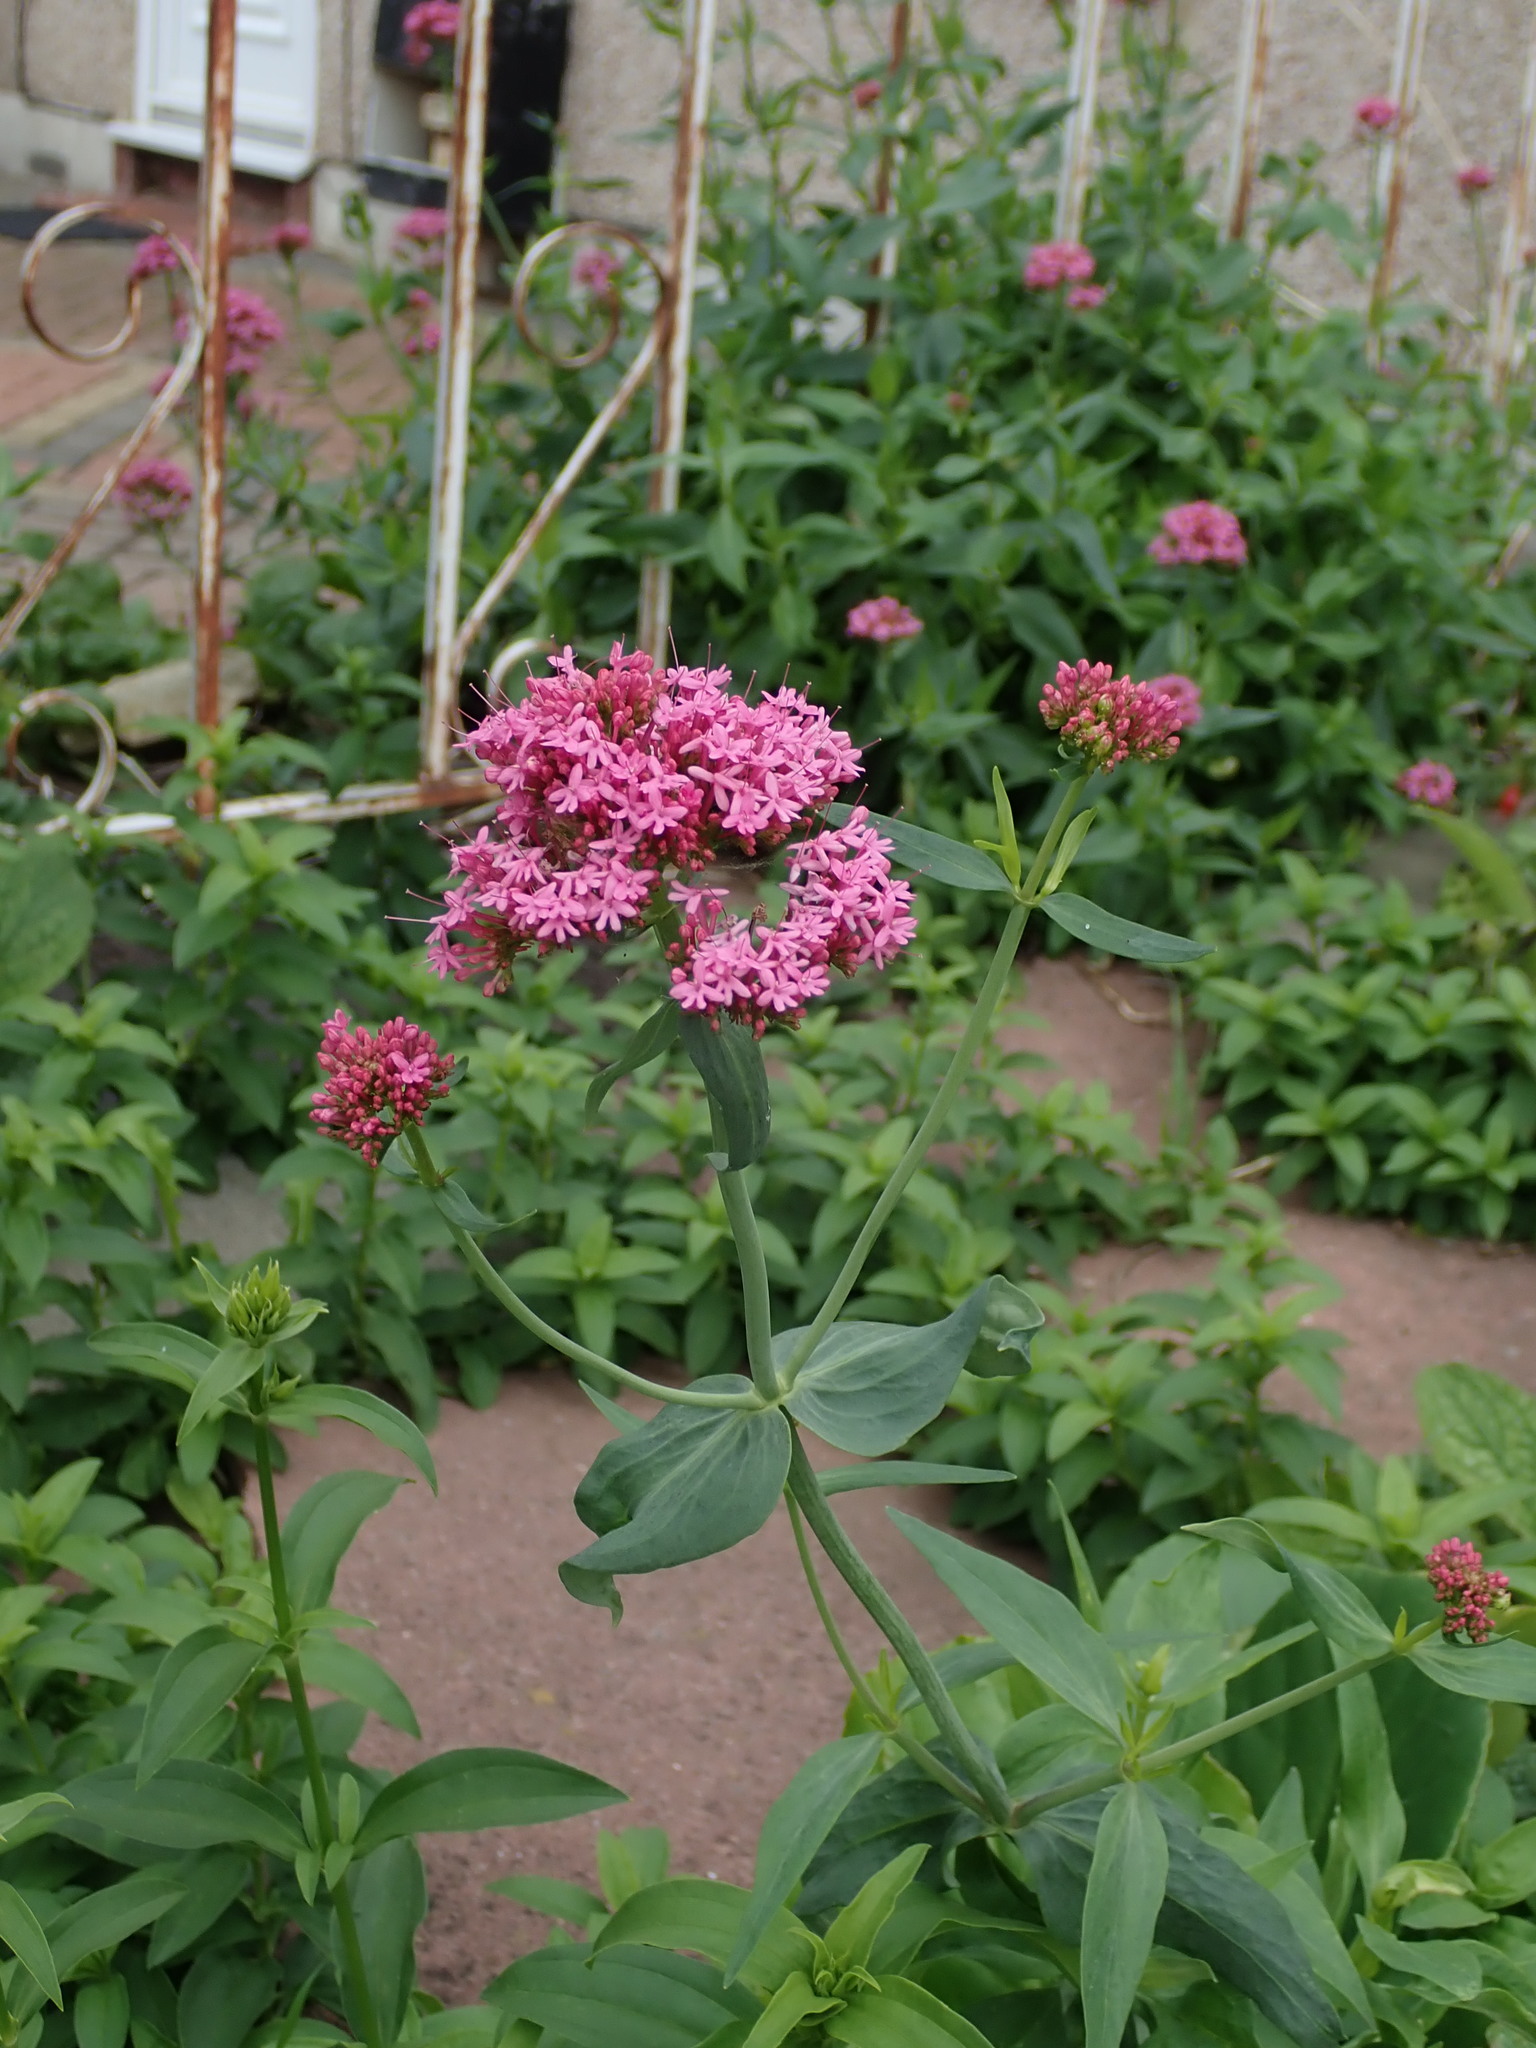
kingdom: Plantae
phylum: Tracheophyta
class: Magnoliopsida
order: Dipsacales
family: Caprifoliaceae
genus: Centranthus
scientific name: Centranthus ruber
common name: Red valerian
